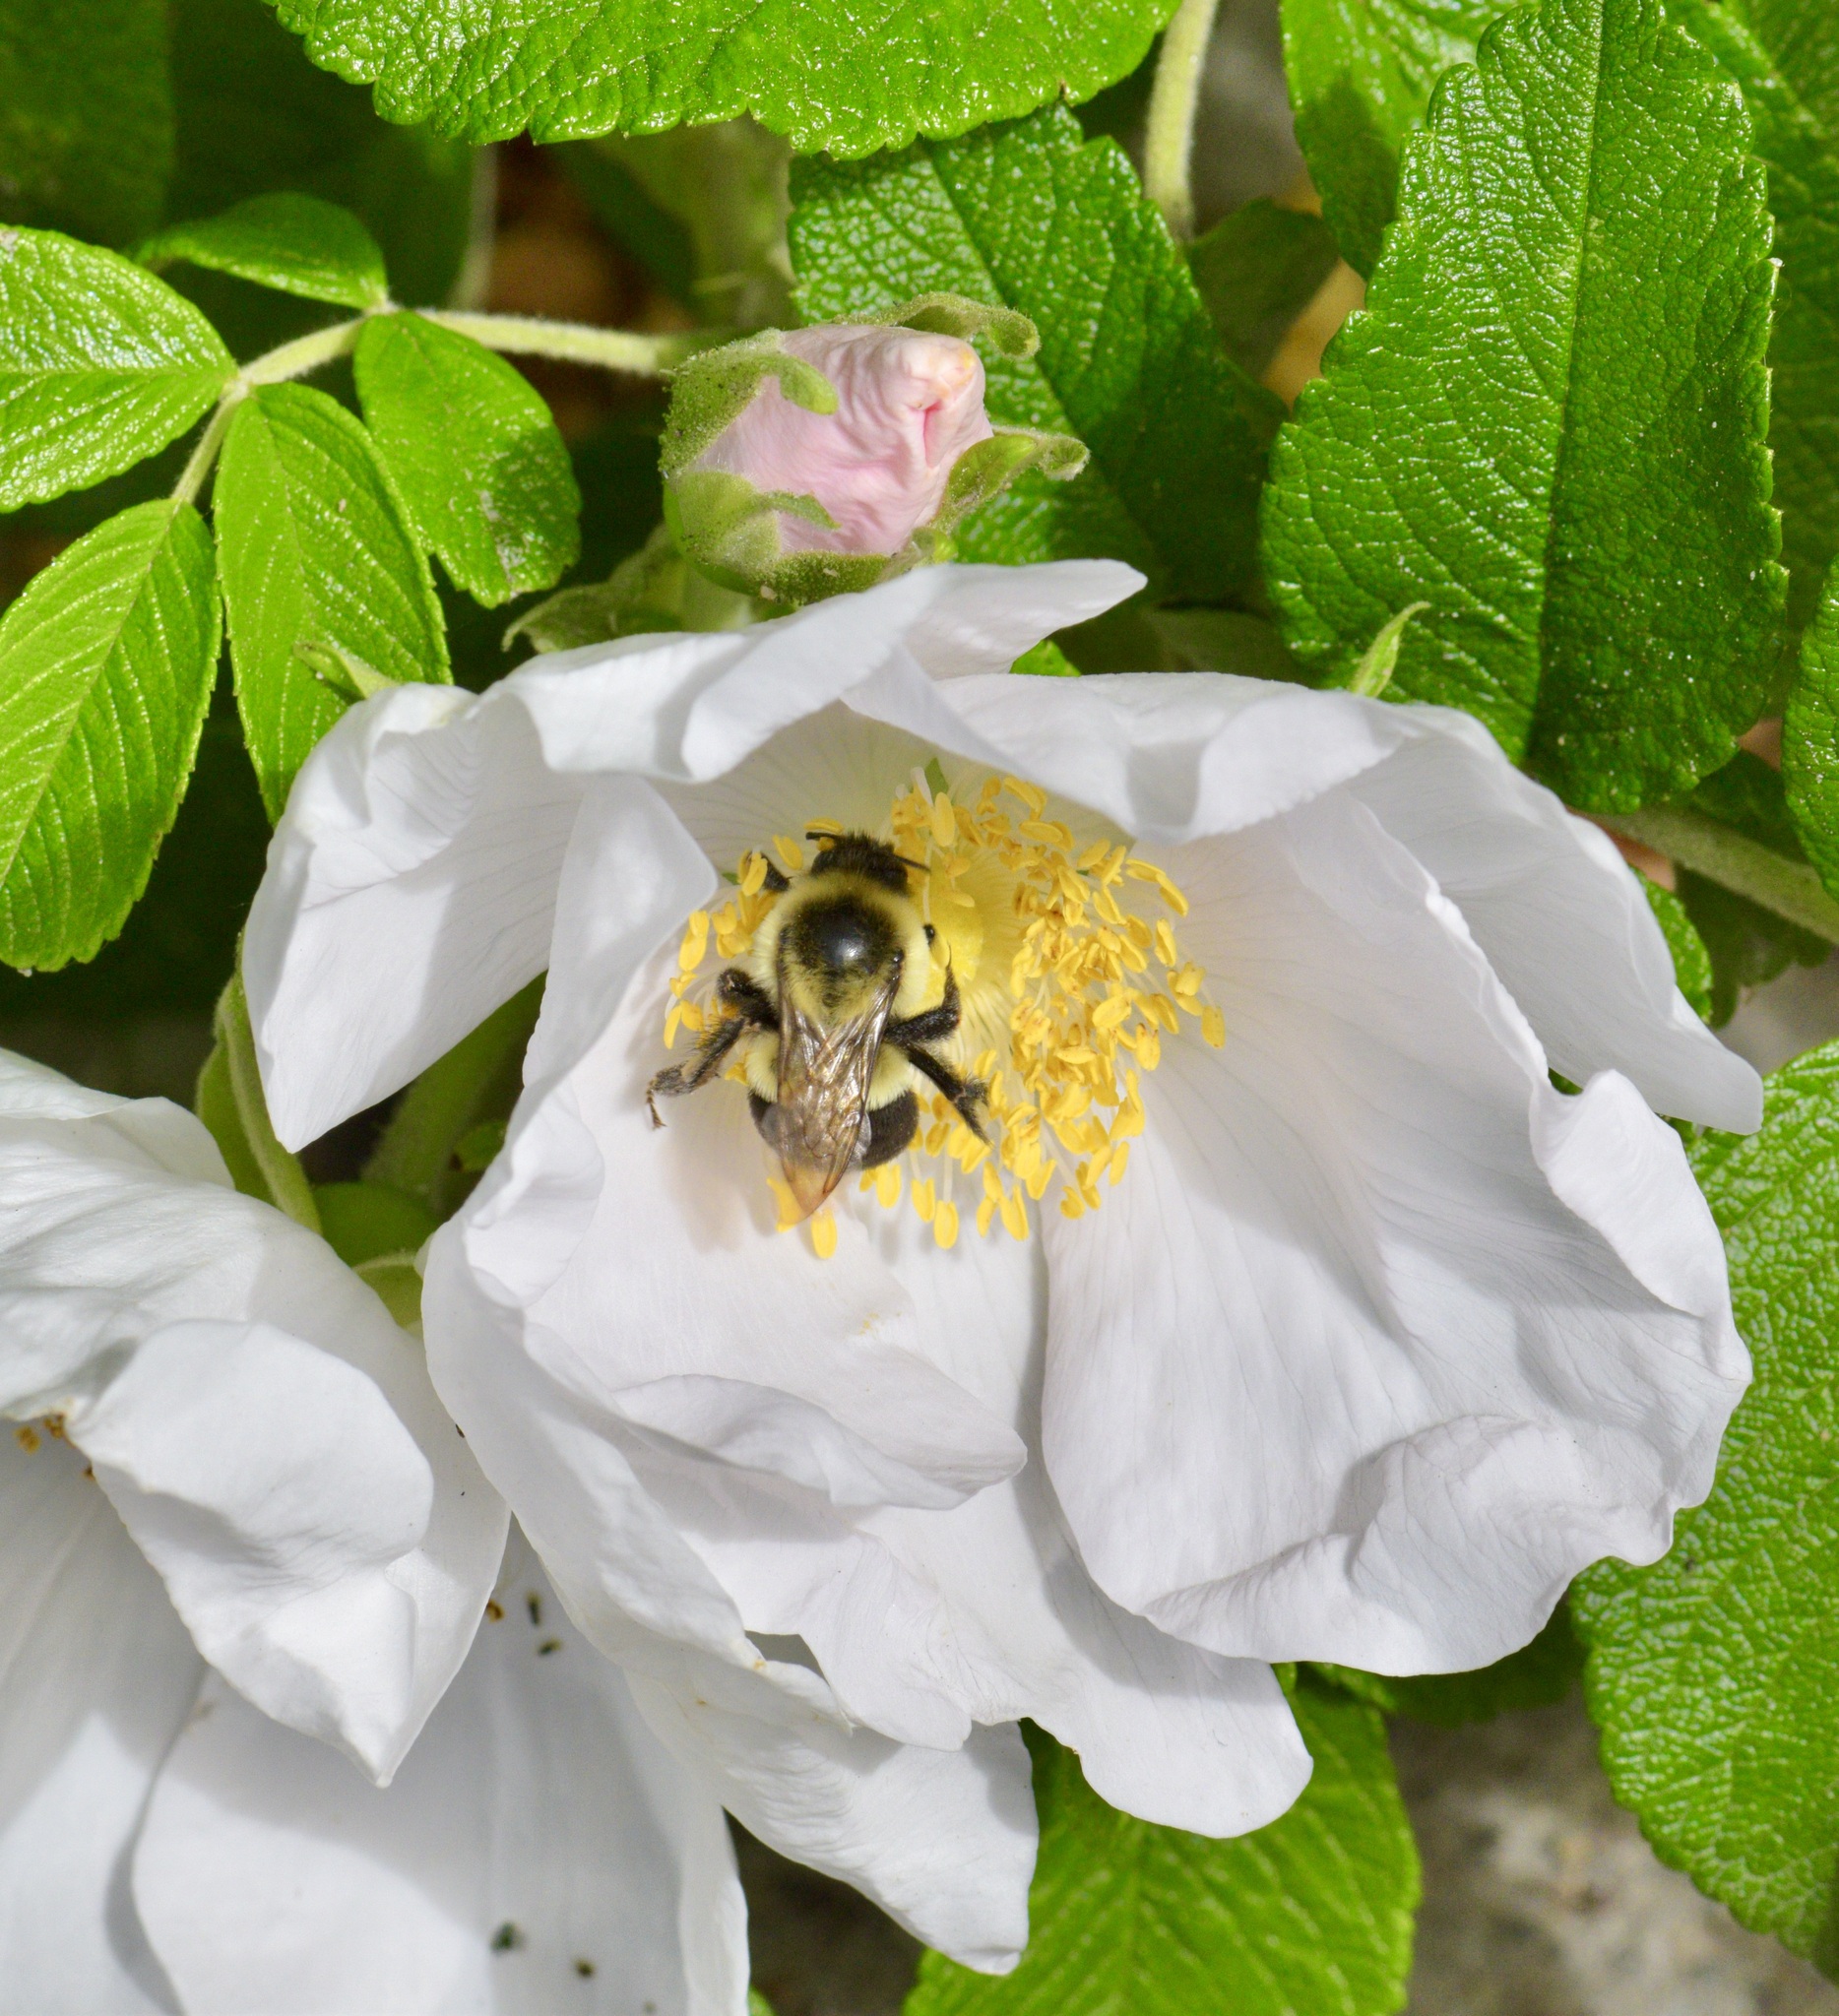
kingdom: Animalia
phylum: Arthropoda
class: Insecta
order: Hymenoptera
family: Apidae
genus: Bombus
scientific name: Bombus impatiens
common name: Common eastern bumble bee
